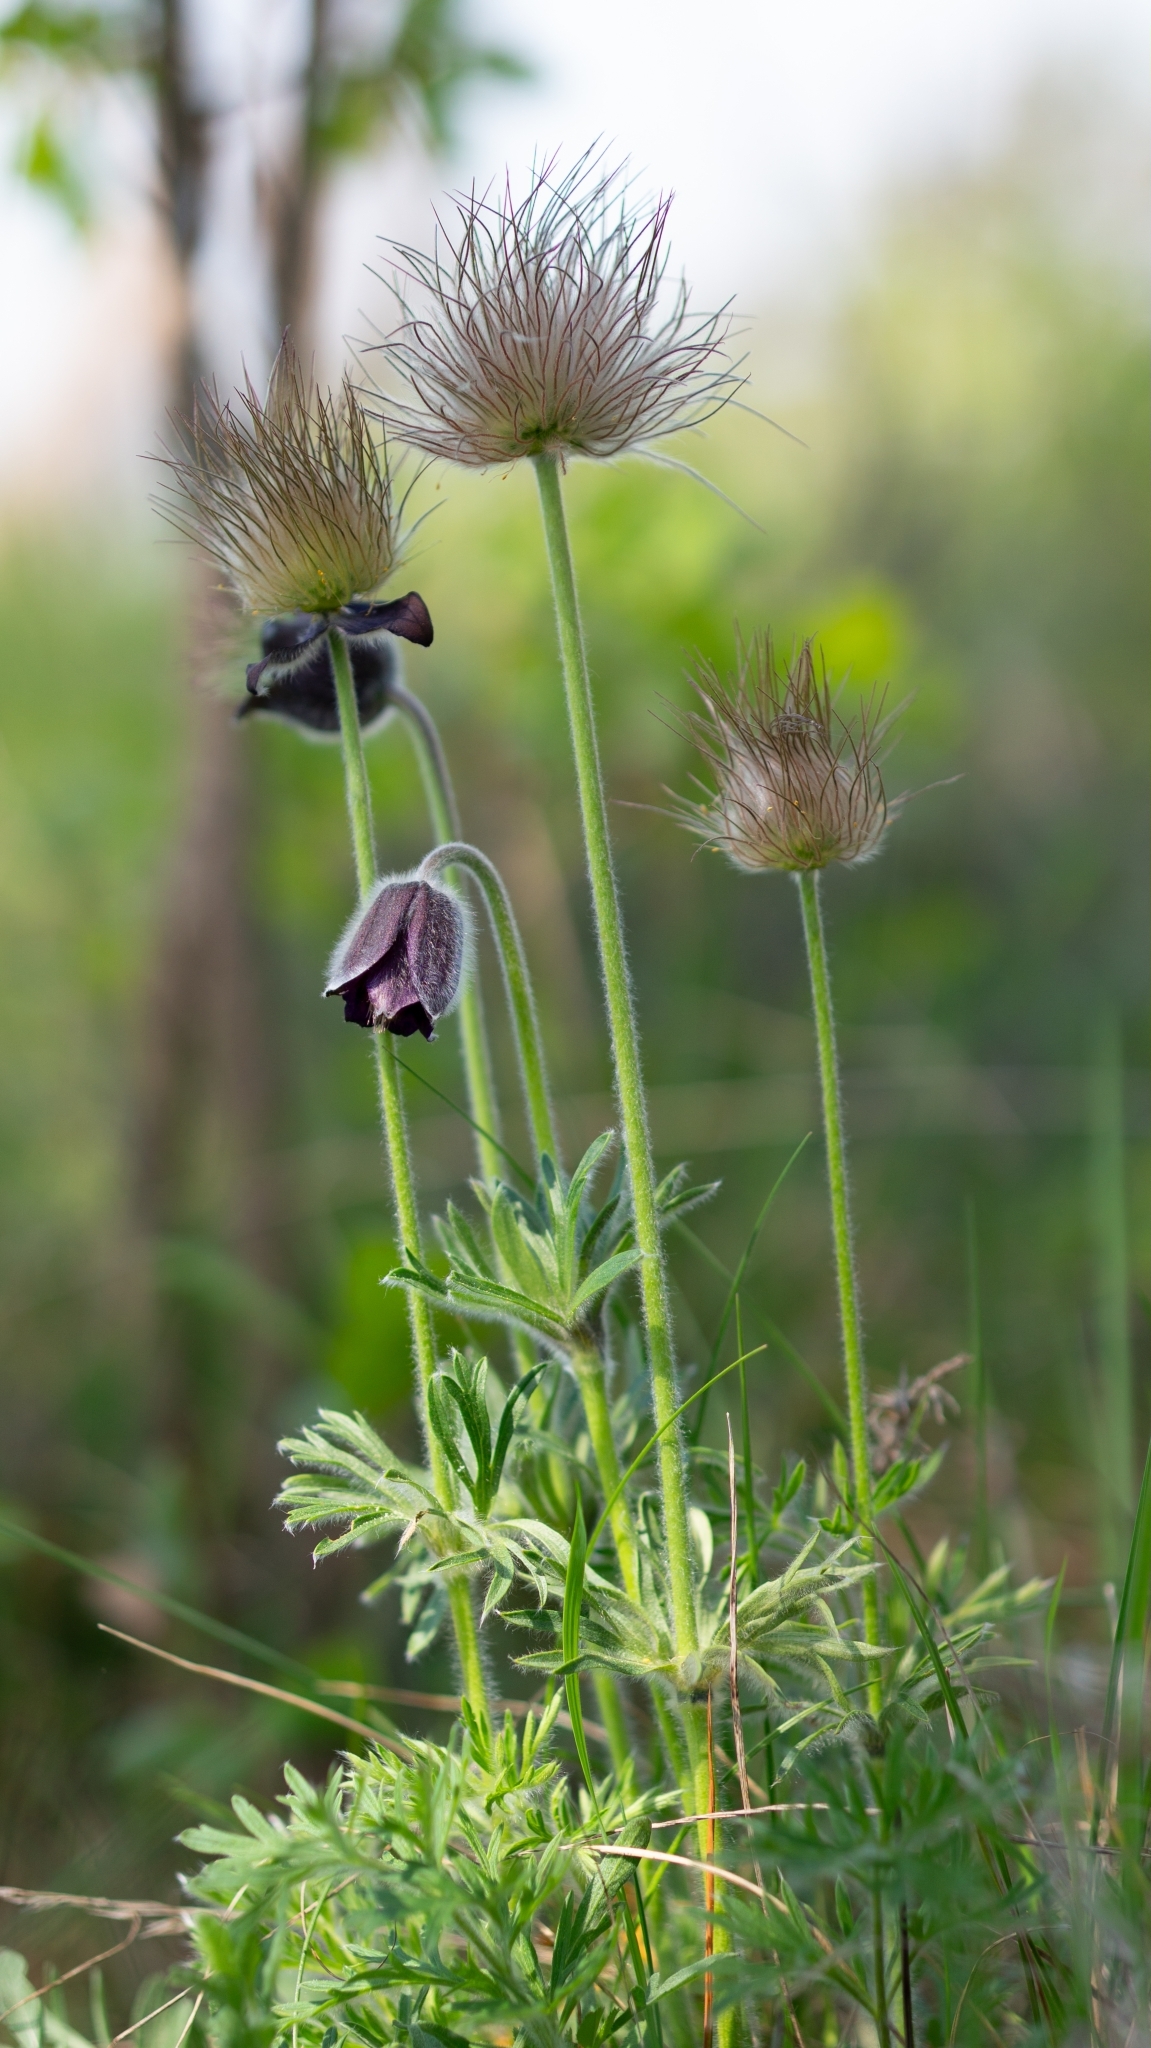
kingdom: Plantae
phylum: Tracheophyta
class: Magnoliopsida
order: Ranunculales
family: Ranunculaceae
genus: Pulsatilla
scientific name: Pulsatilla pratensis
